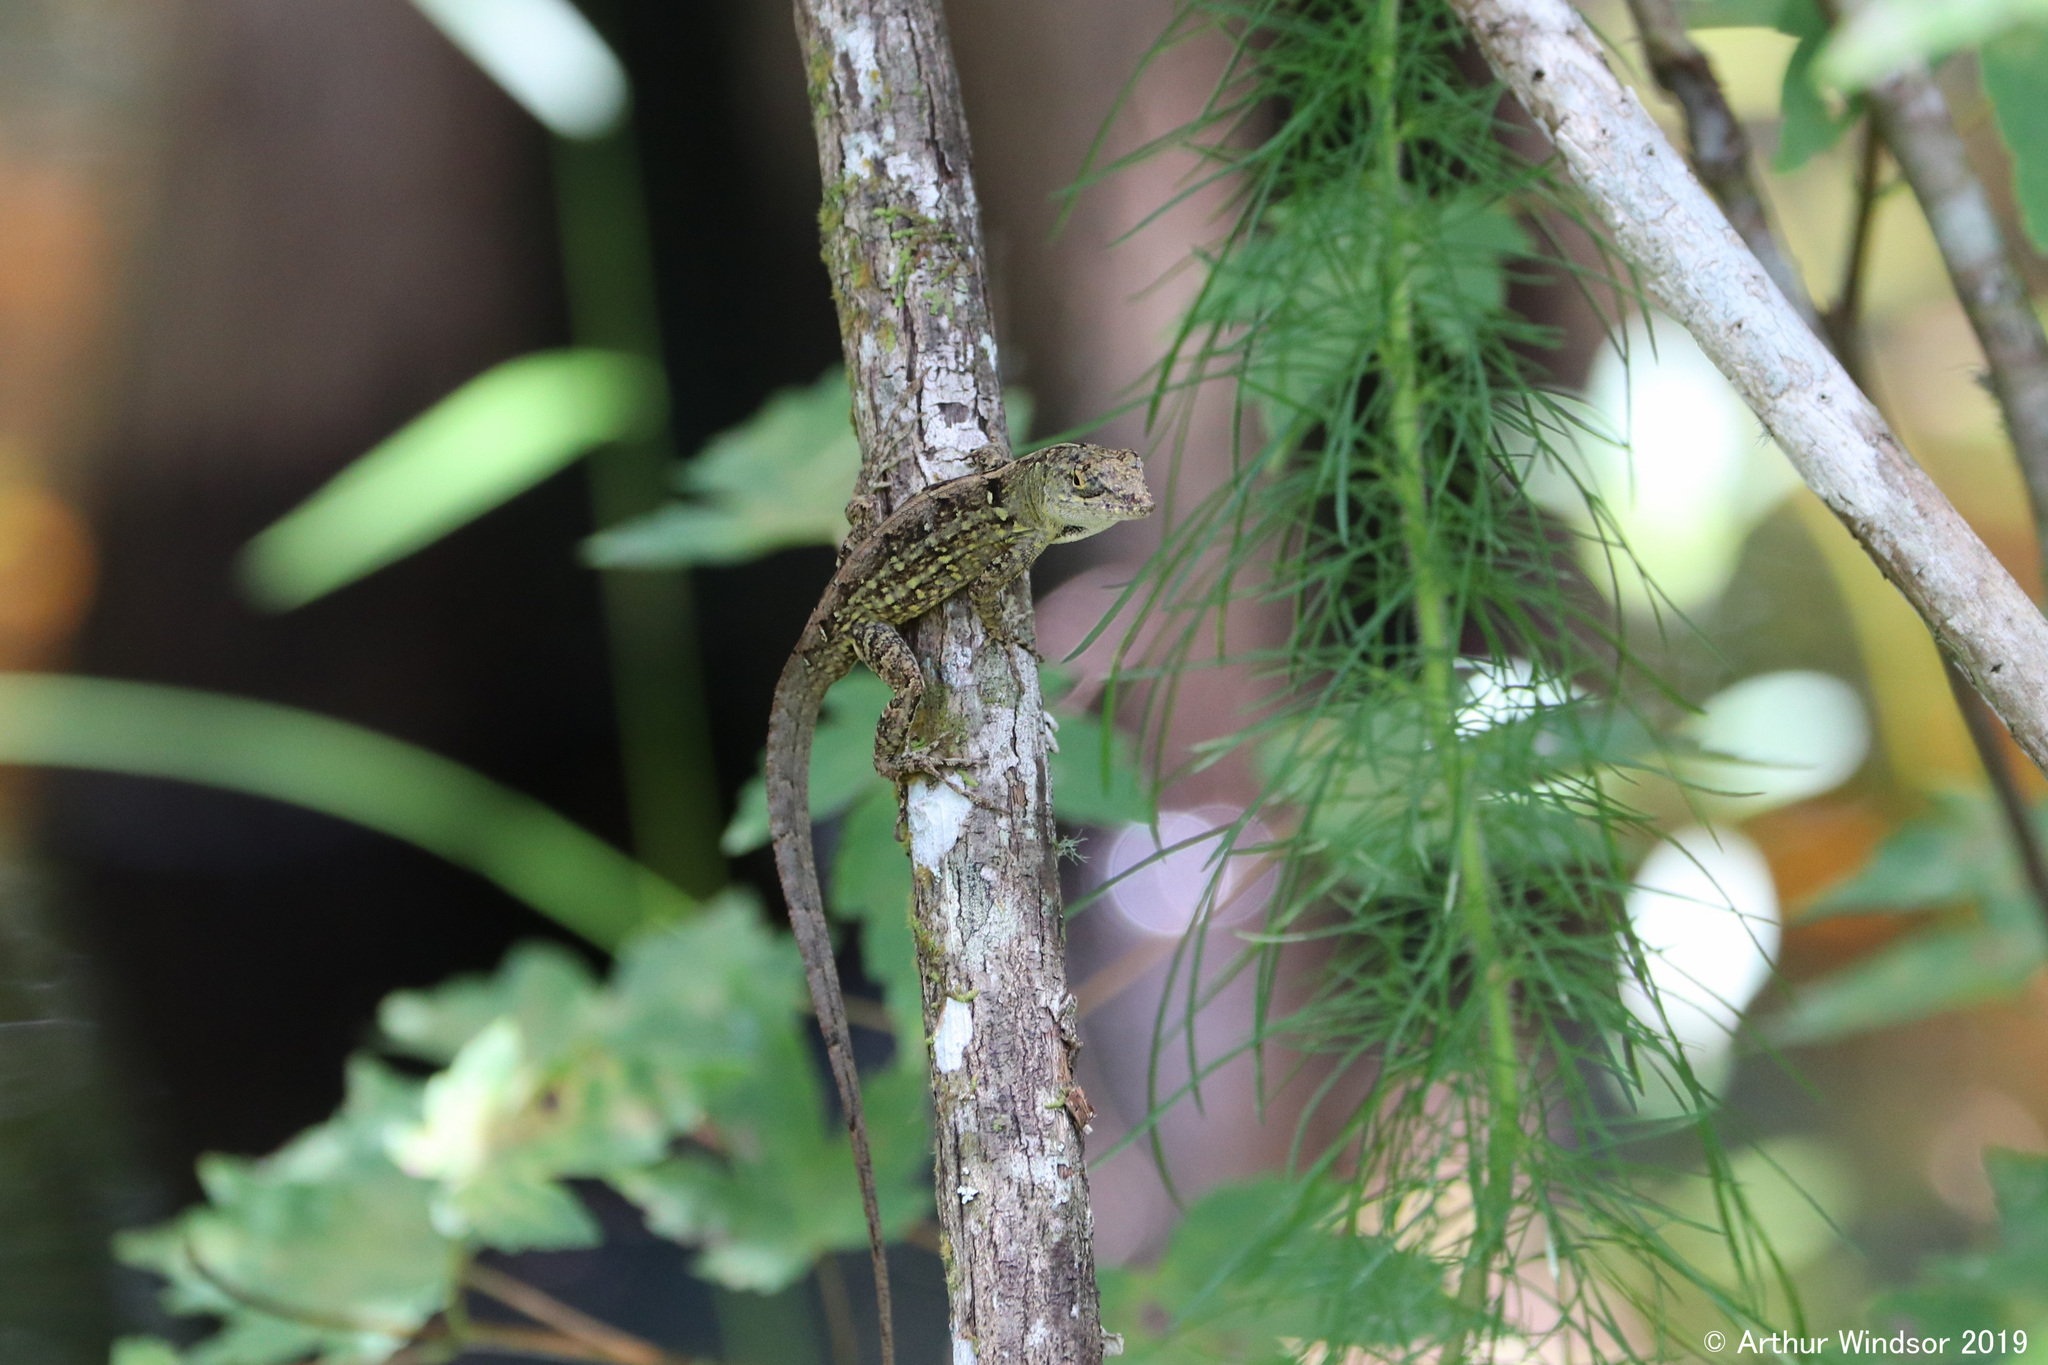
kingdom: Animalia
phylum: Chordata
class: Squamata
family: Dactyloidae
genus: Anolis
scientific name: Anolis sagrei
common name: Brown anole
